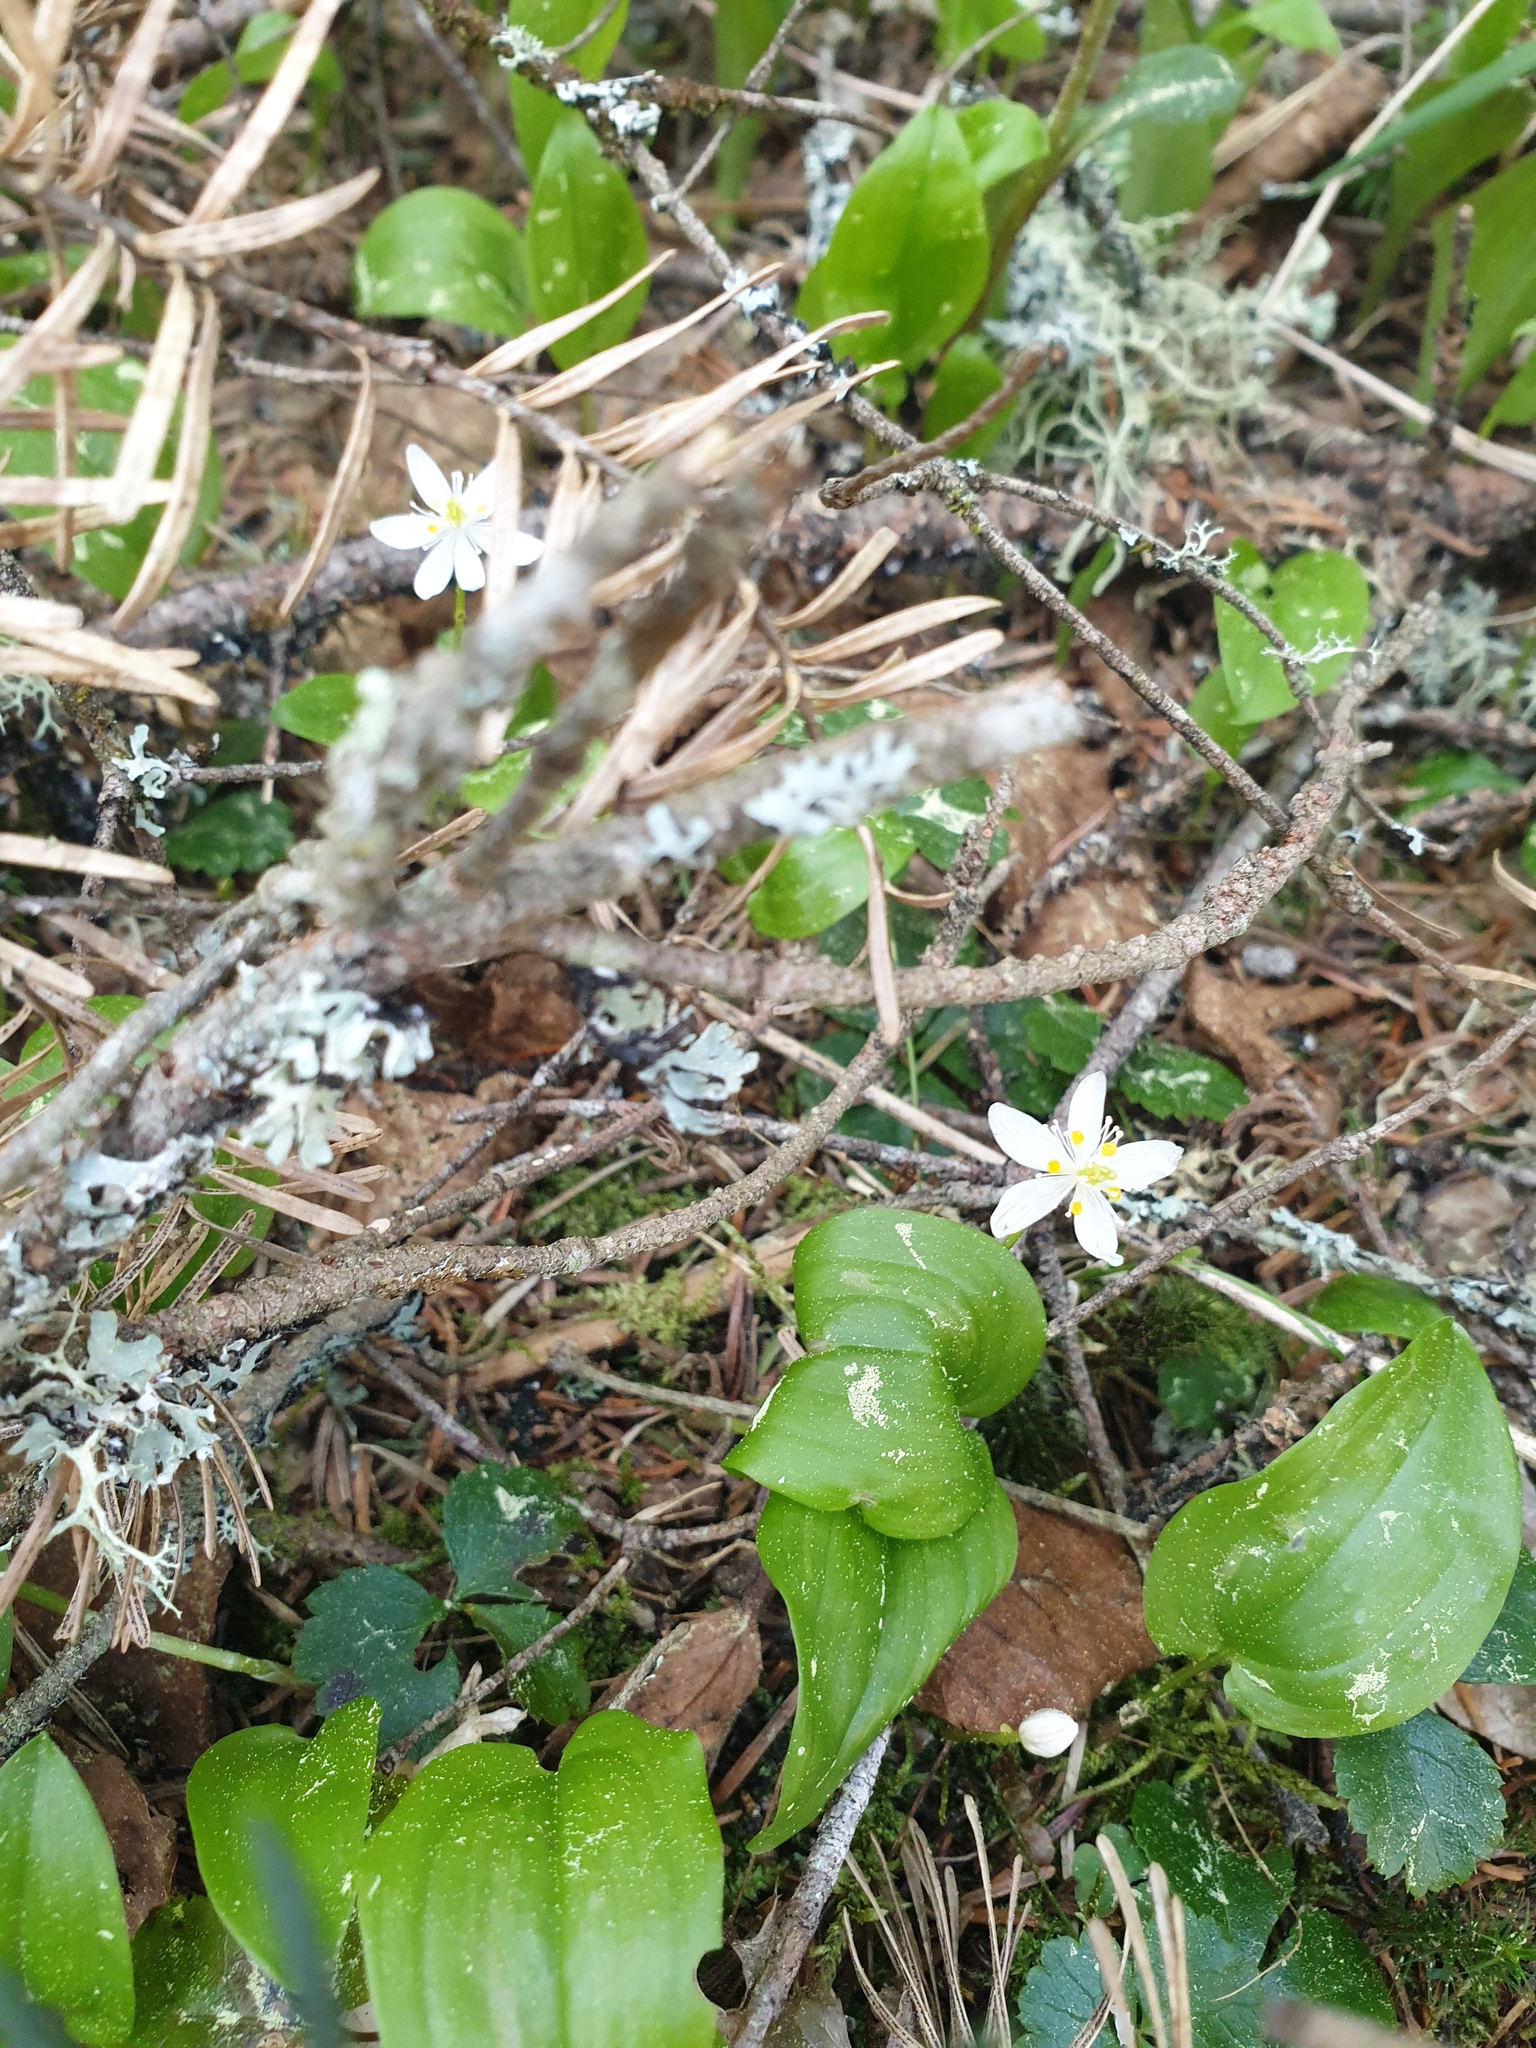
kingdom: Plantae
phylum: Tracheophyta
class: Magnoliopsida
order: Ranunculales
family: Ranunculaceae
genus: Coptis
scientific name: Coptis trifolia
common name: Canker-root
